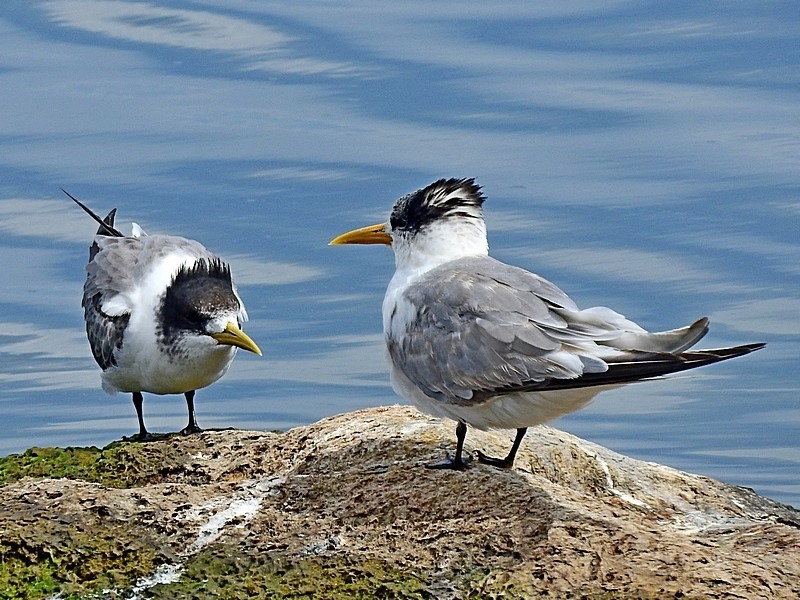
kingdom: Animalia
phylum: Chordata
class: Aves
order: Charadriiformes
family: Laridae
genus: Thalasseus
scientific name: Thalasseus bergii
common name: Greater crested tern
